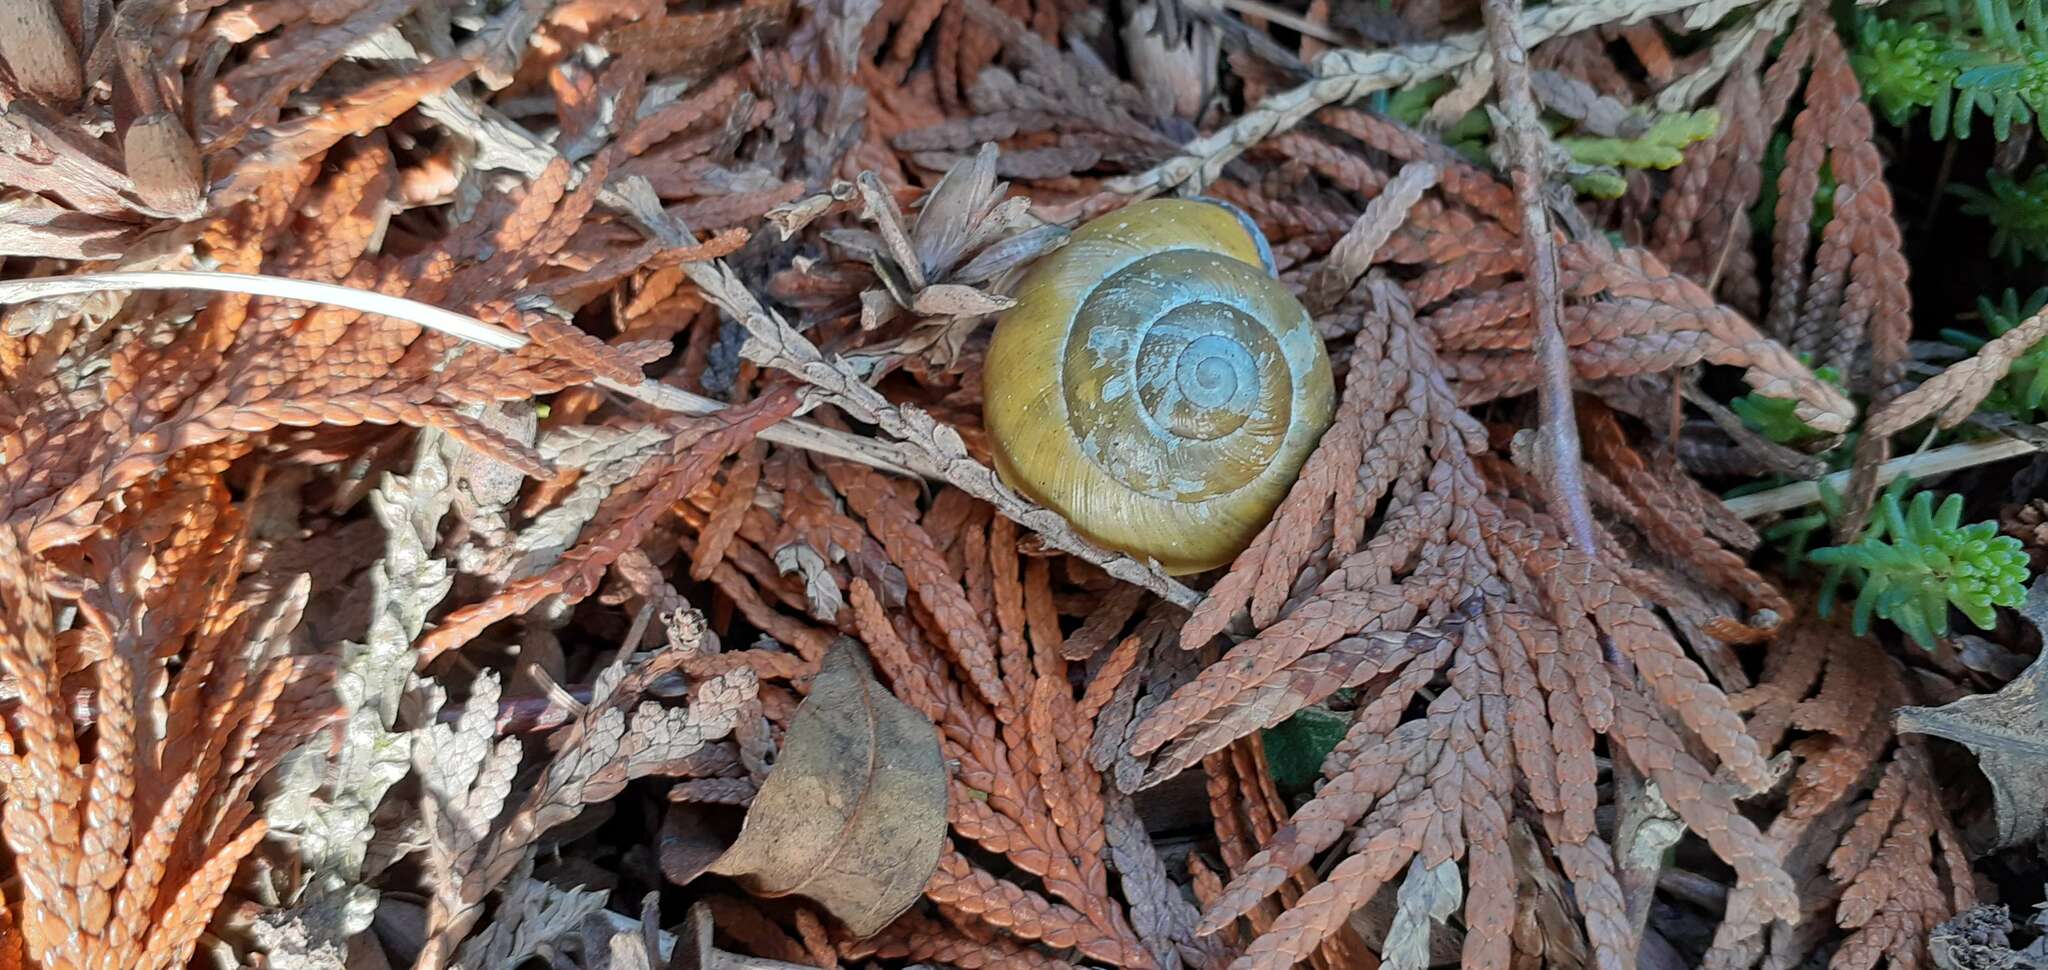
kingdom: Animalia
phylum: Mollusca
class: Gastropoda
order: Stylommatophora
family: Helicidae
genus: Cepaea
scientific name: Cepaea nemoralis
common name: Grovesnail
